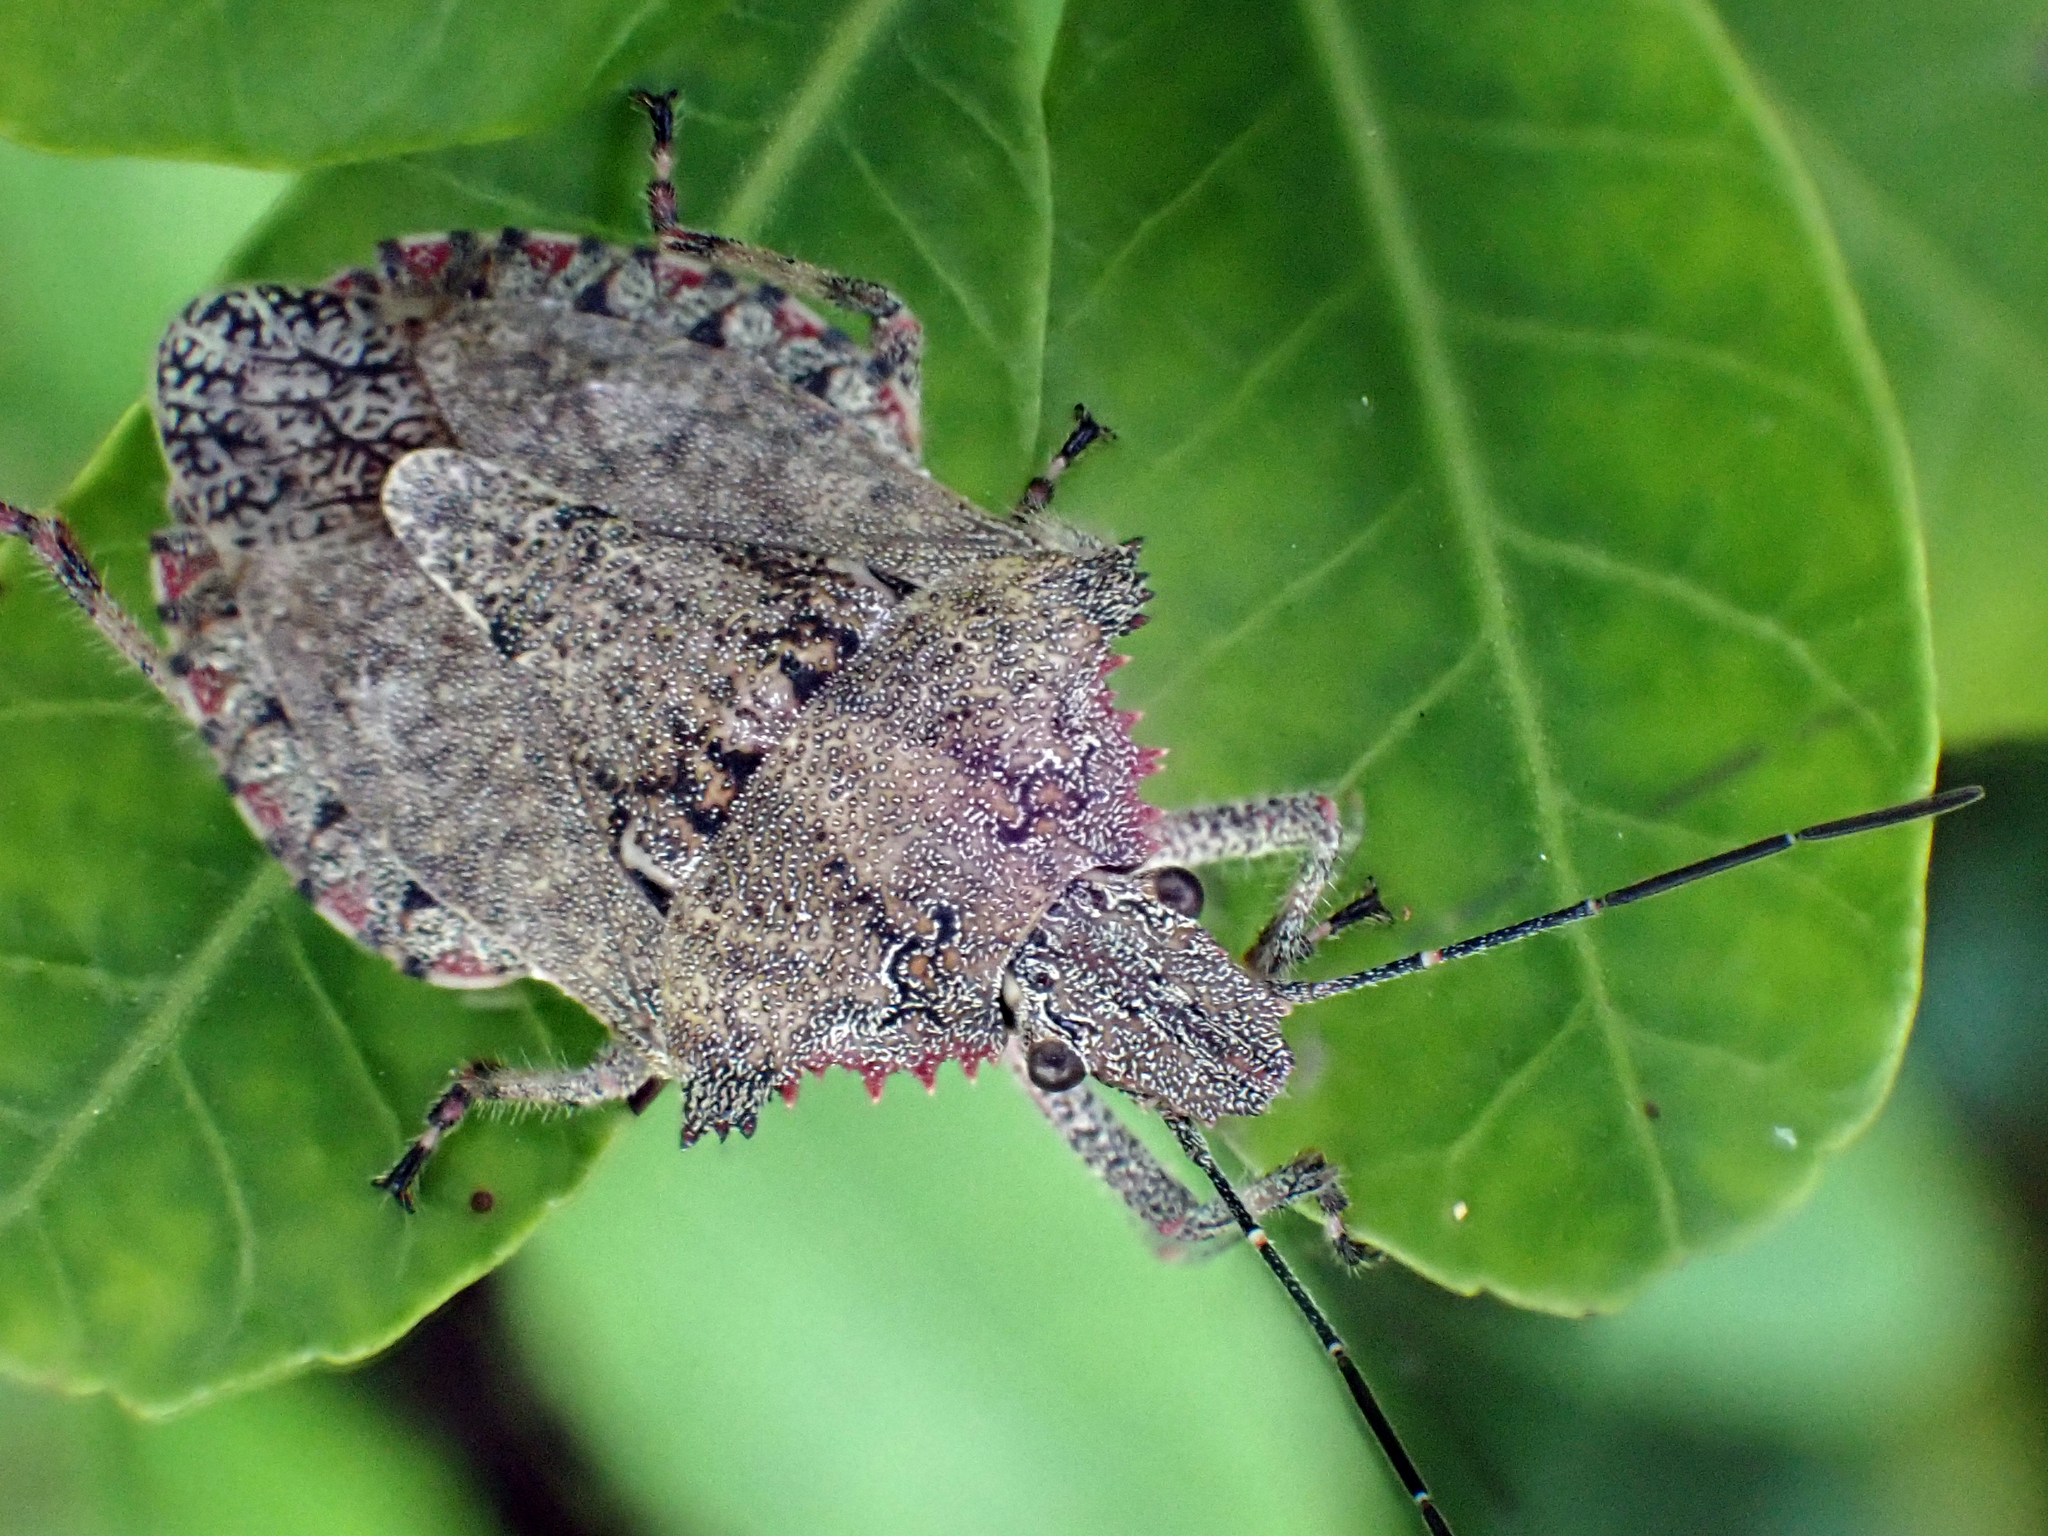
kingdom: Animalia
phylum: Arthropoda
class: Insecta
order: Hemiptera
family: Pentatomidae
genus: Brochymena
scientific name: Brochymena florida
